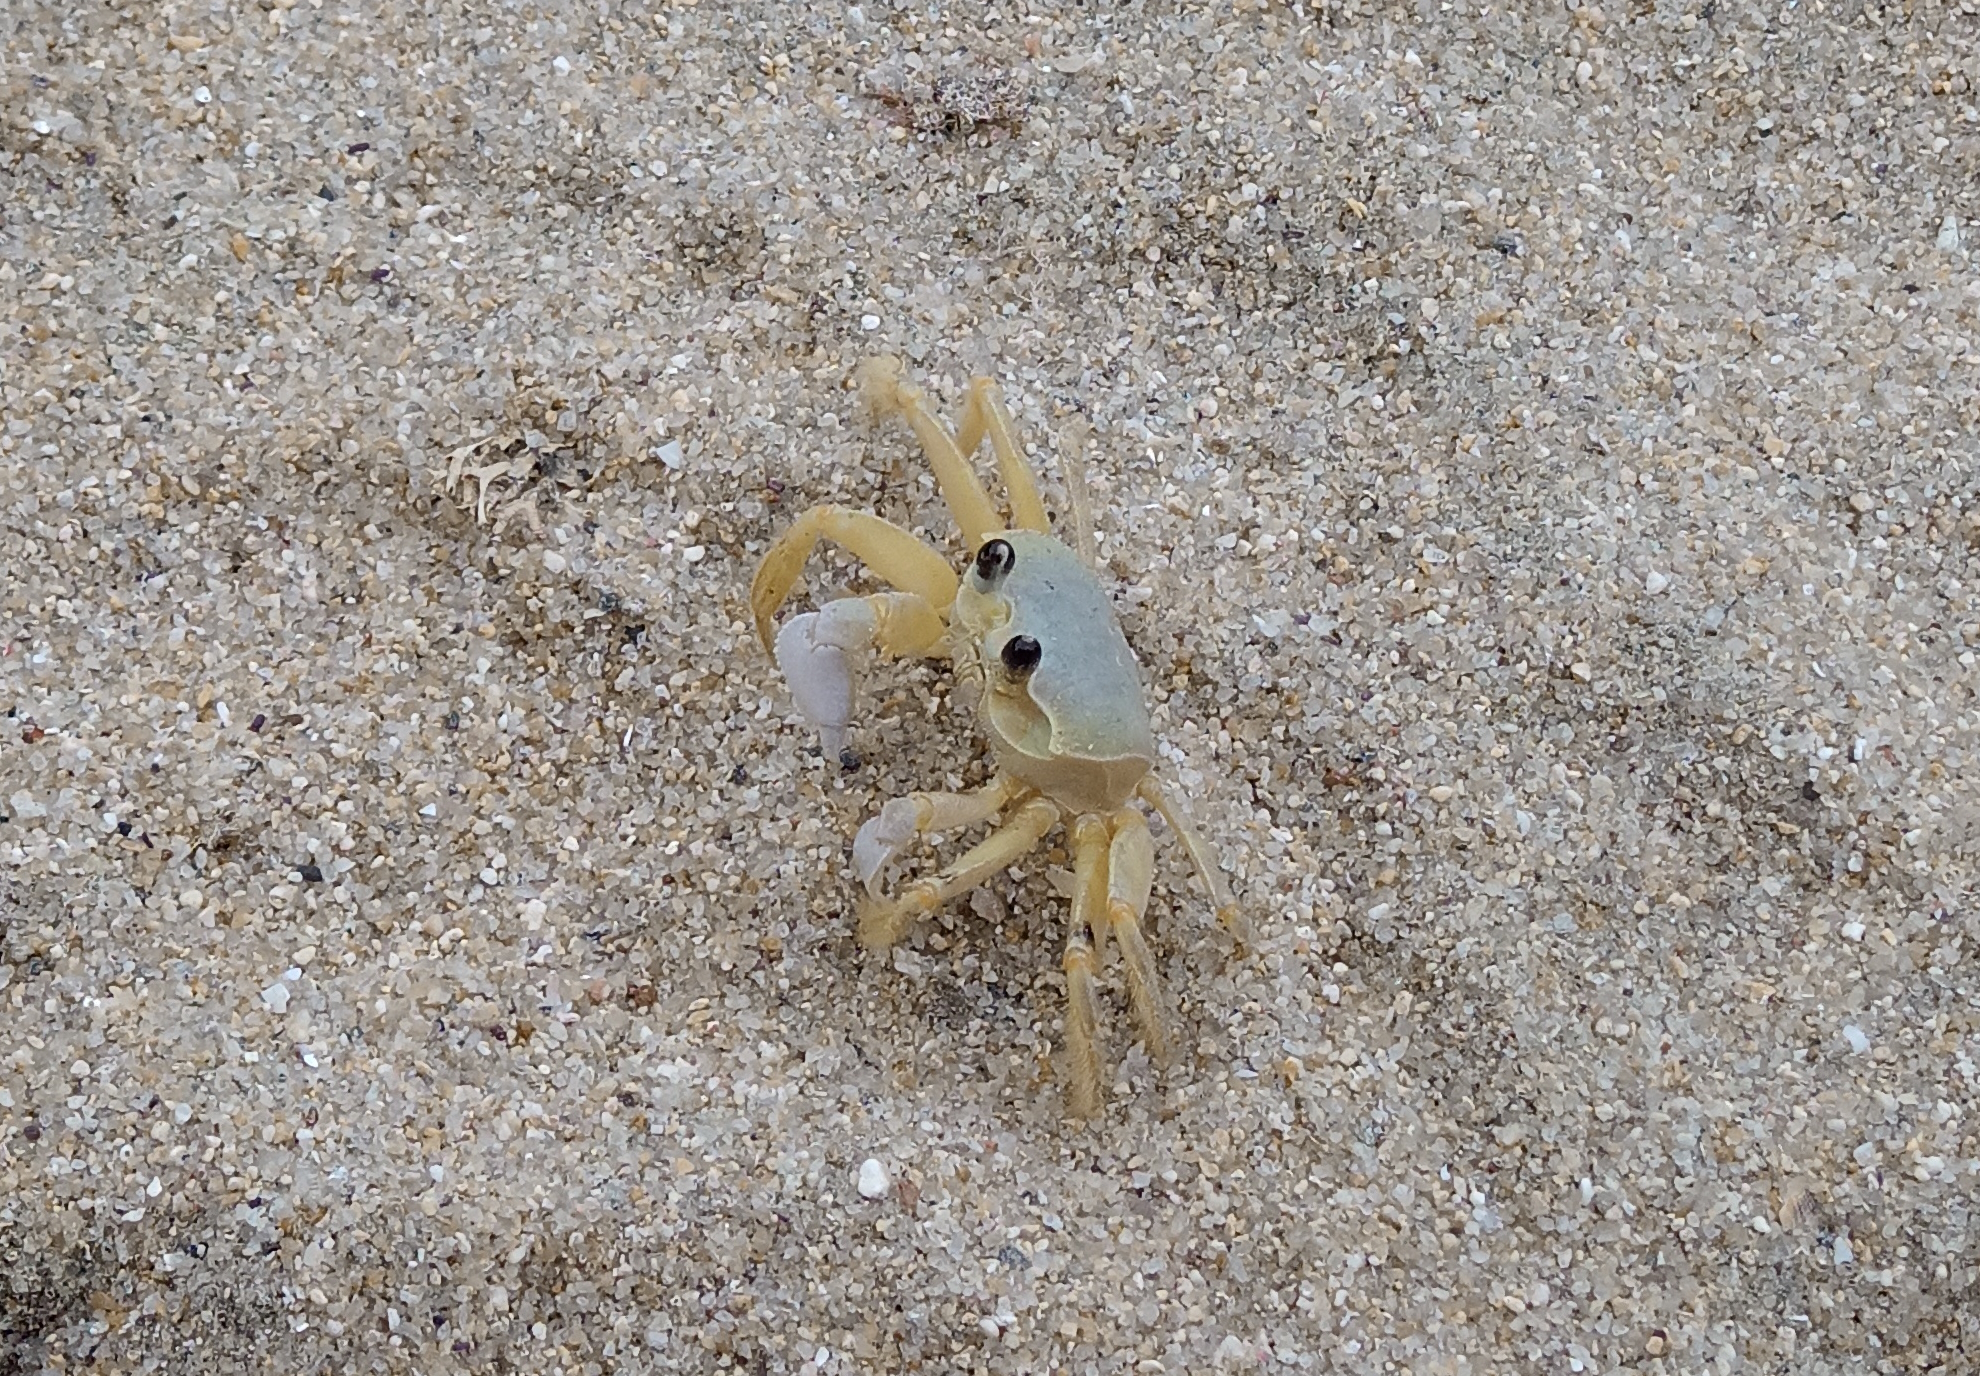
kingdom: Animalia
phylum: Arthropoda
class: Malacostraca
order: Decapoda
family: Ocypodidae
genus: Ocypode
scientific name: Ocypode quadrata
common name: Ghost crab
